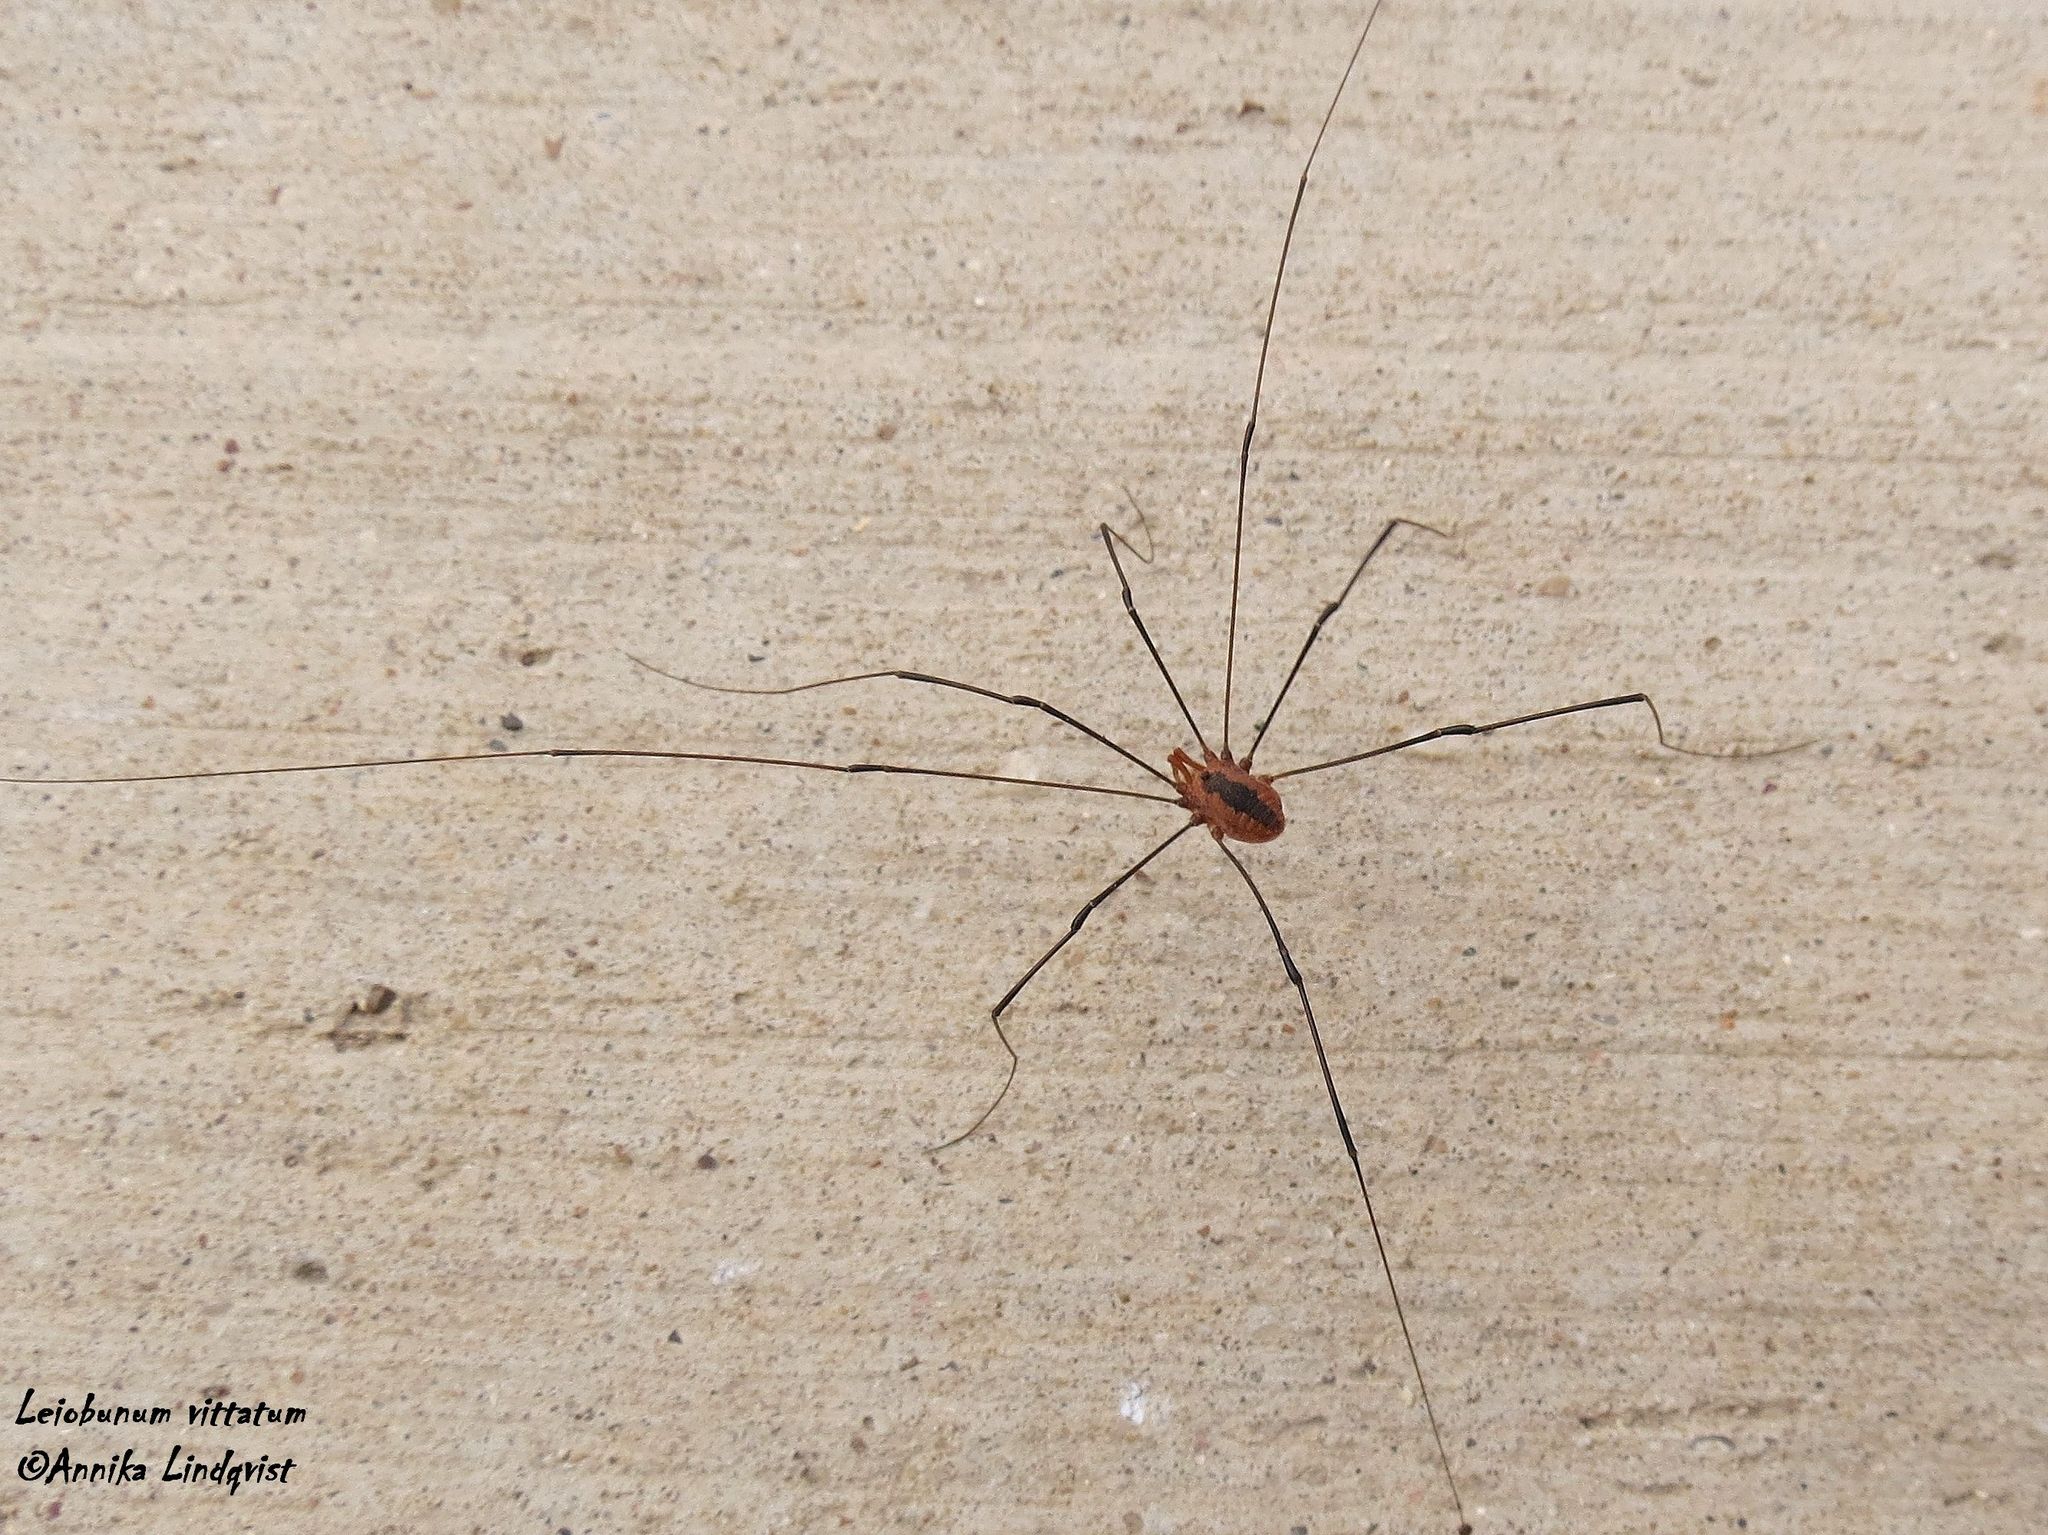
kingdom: Animalia
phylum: Arthropoda
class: Arachnida
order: Opiliones
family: Sclerosomatidae
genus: Leiobunum
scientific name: Leiobunum vittatum
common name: Eastern harvestman
